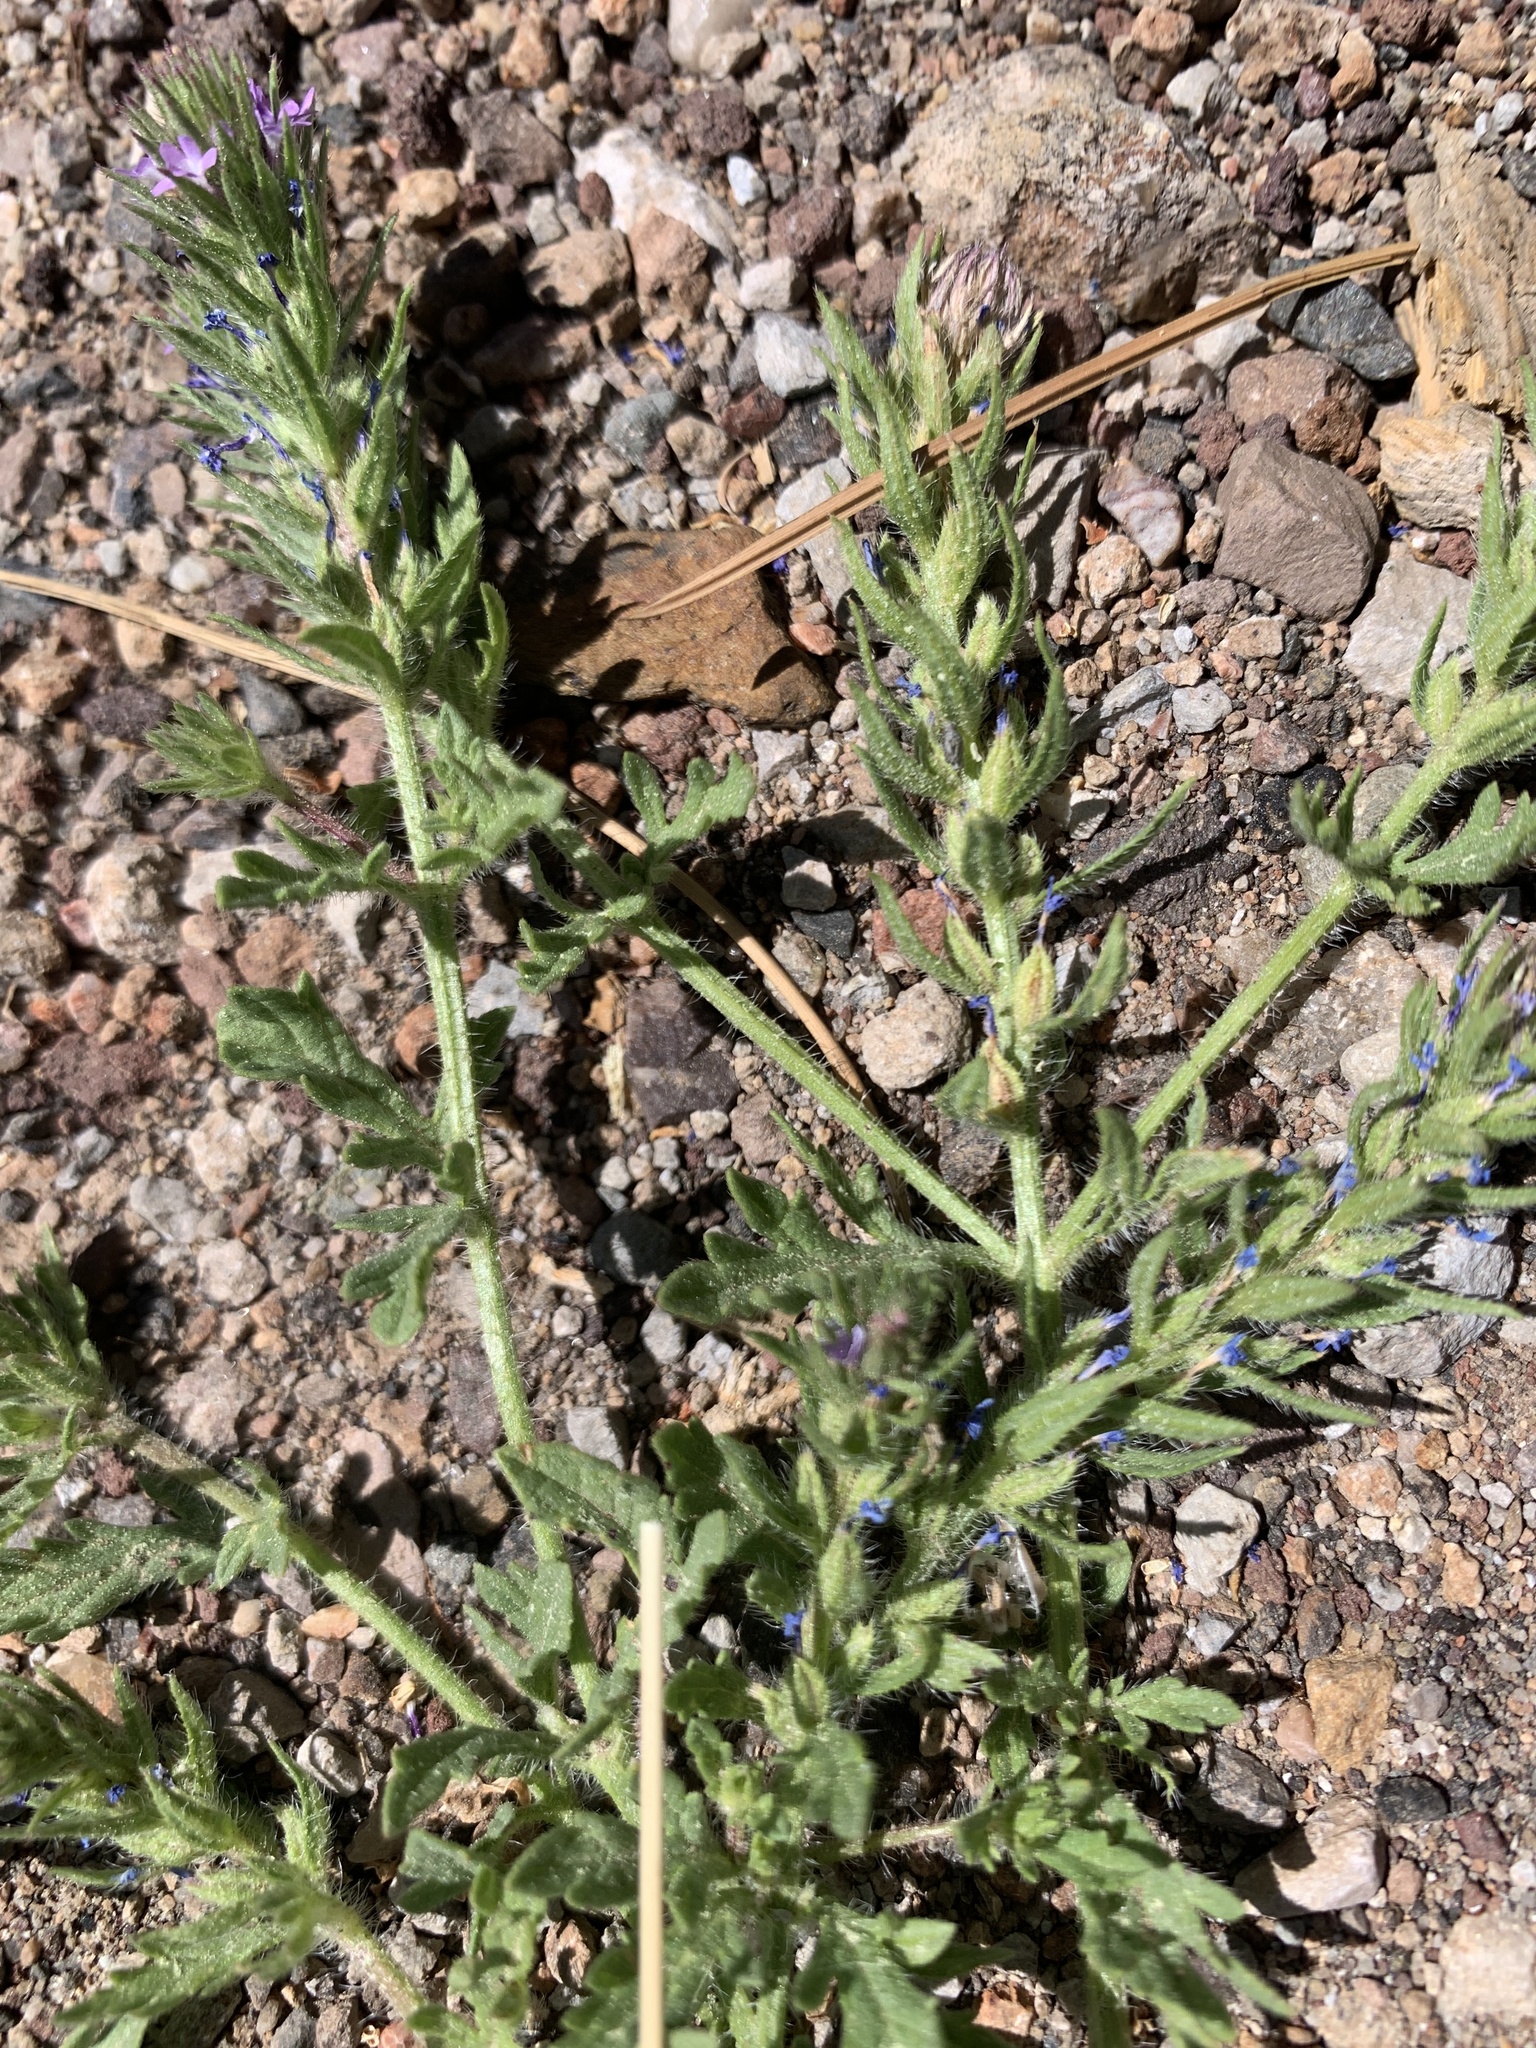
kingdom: Plantae
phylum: Tracheophyta
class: Magnoliopsida
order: Lamiales
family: Verbenaceae
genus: Verbena
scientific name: Verbena bracteata
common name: Bracted vervain
